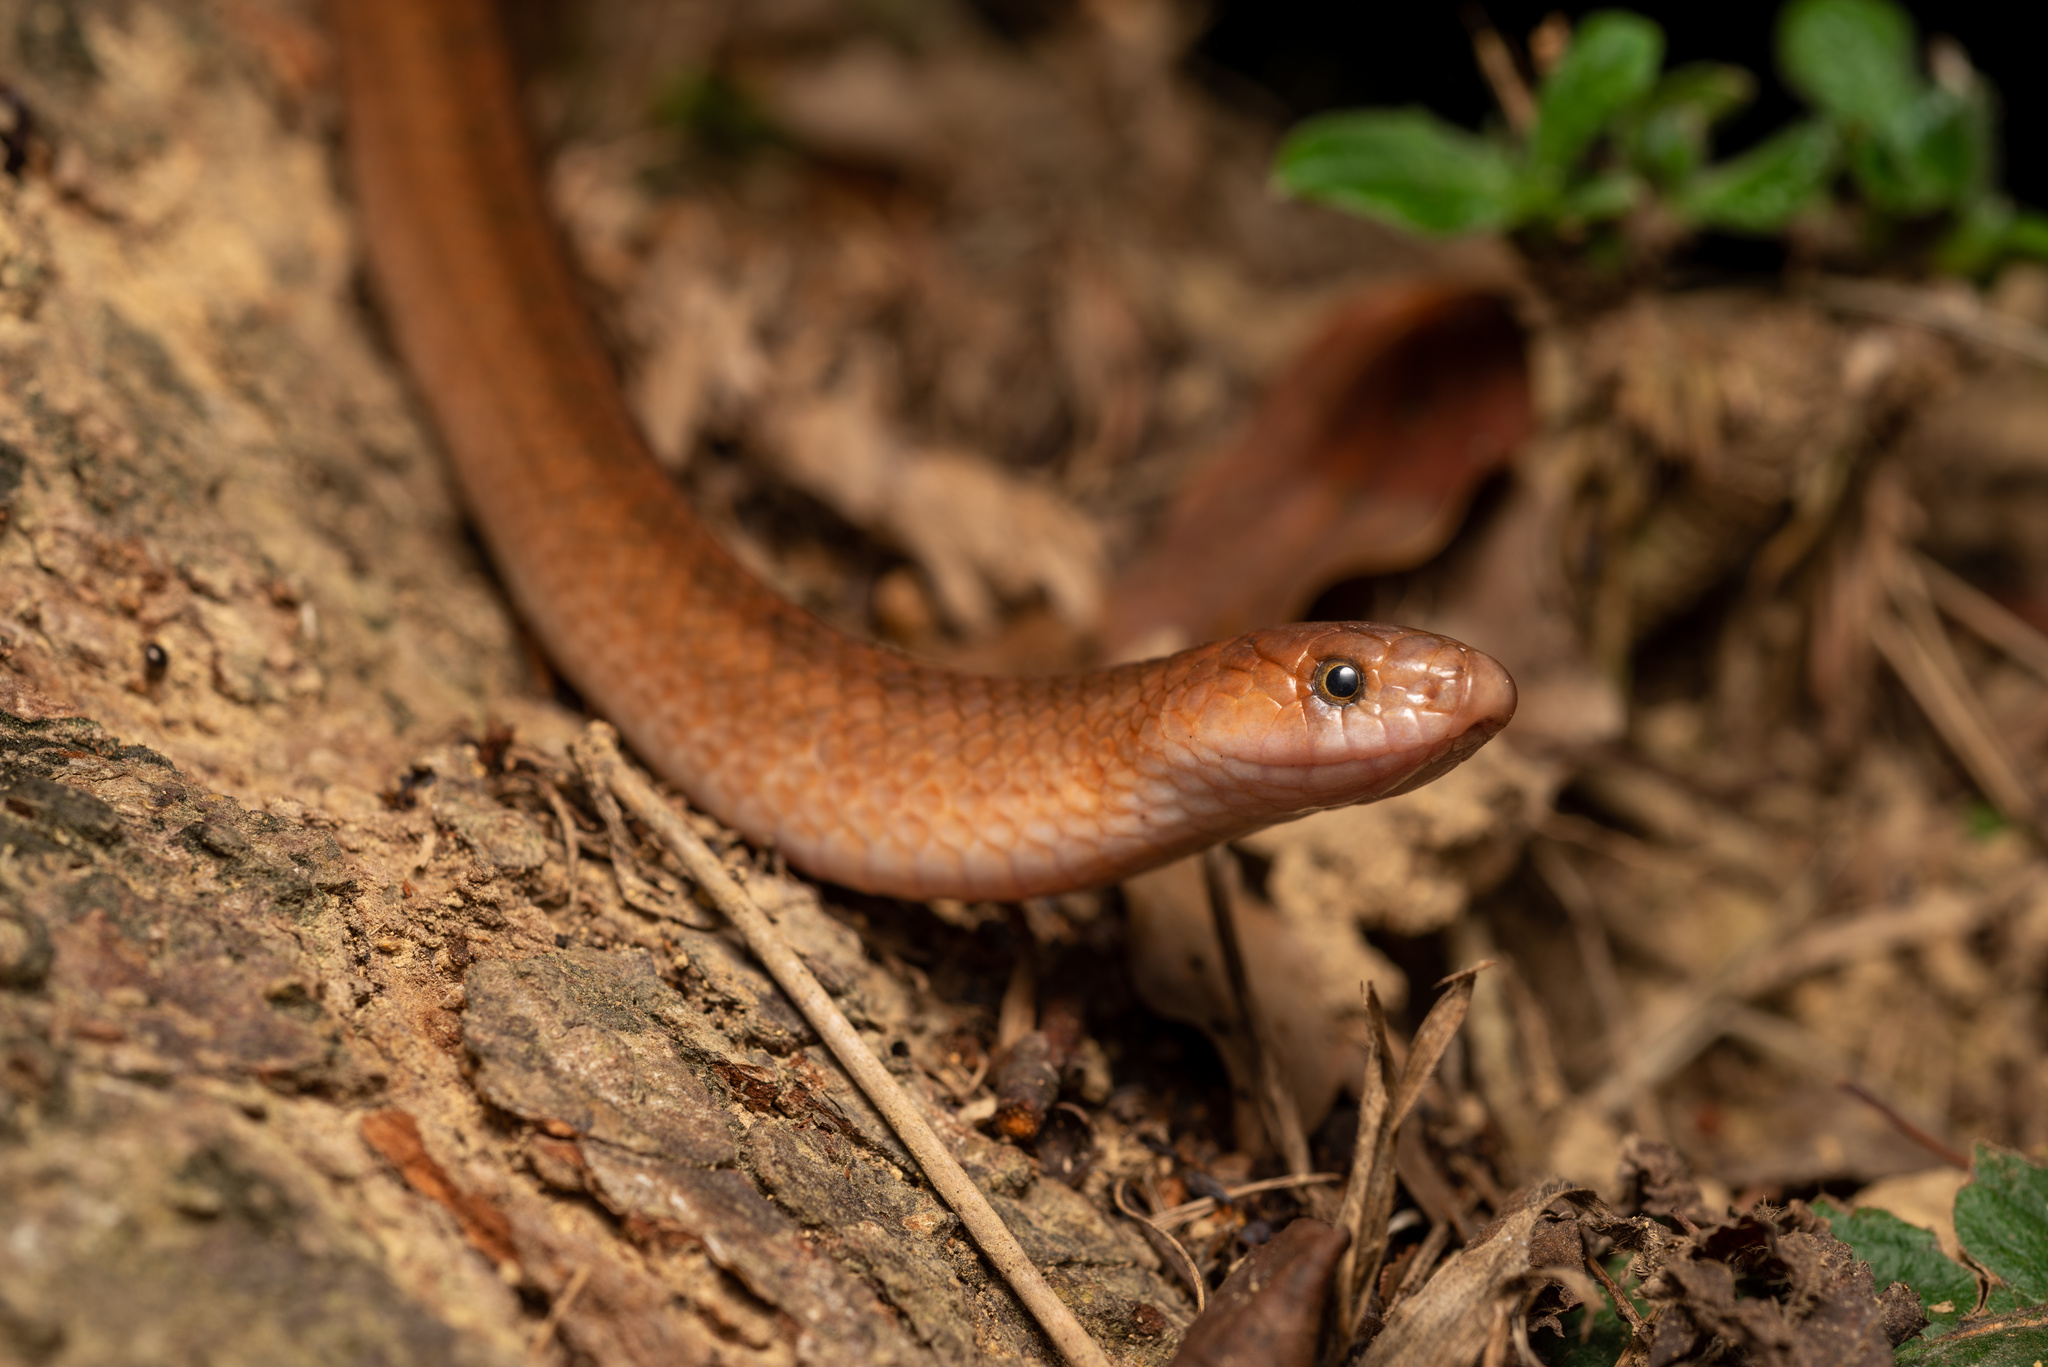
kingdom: Animalia
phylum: Chordata
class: Squamata
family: Colubridae
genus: Oligodon
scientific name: Oligodon cinereus
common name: Ashy kukri snake
